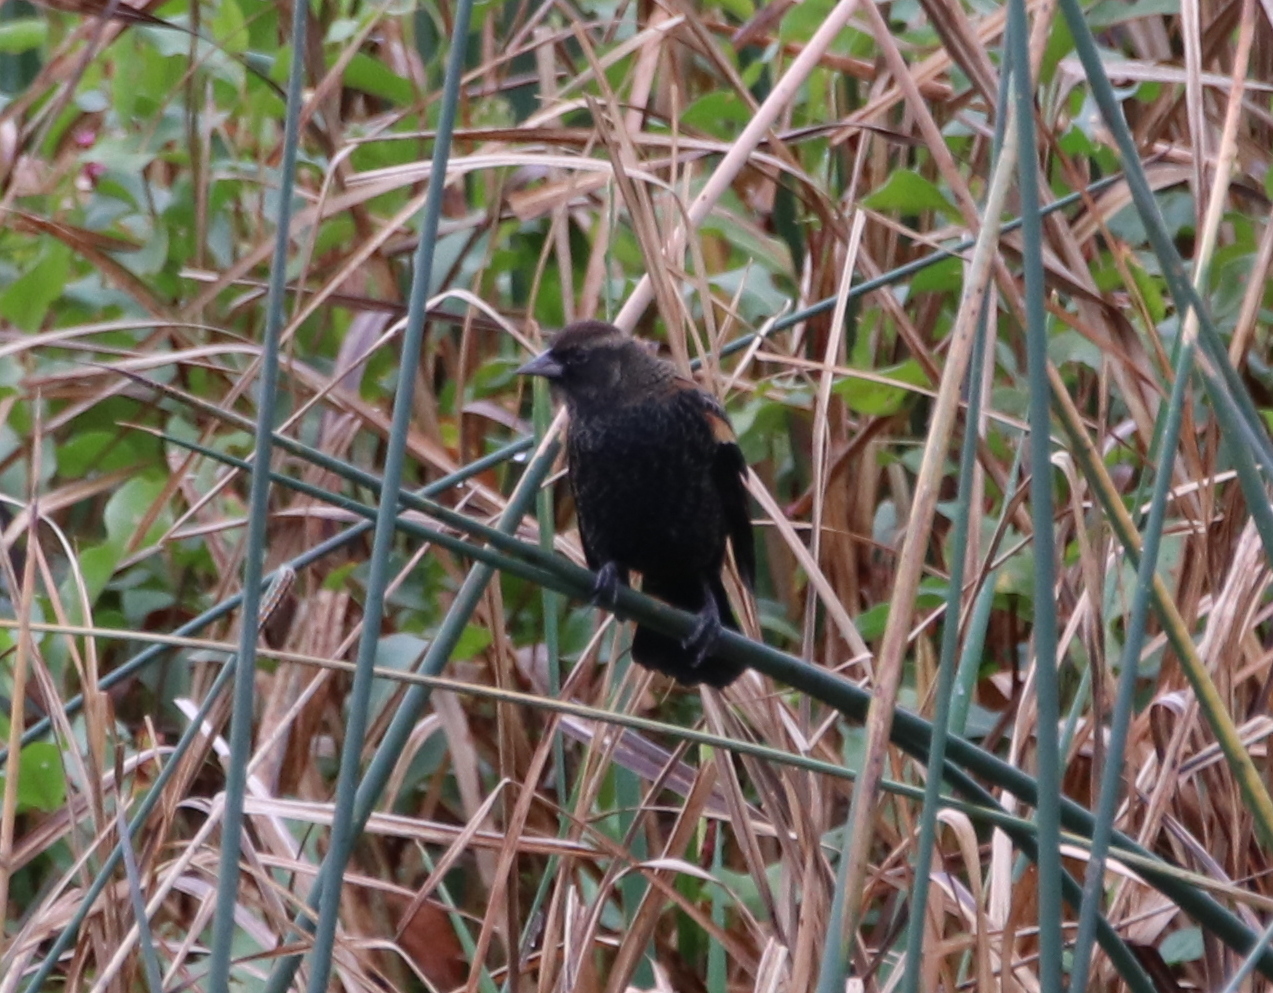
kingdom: Animalia
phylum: Chordata
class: Aves
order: Passeriformes
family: Icteridae
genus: Agelaius
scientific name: Agelaius phoeniceus
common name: Red-winged blackbird
